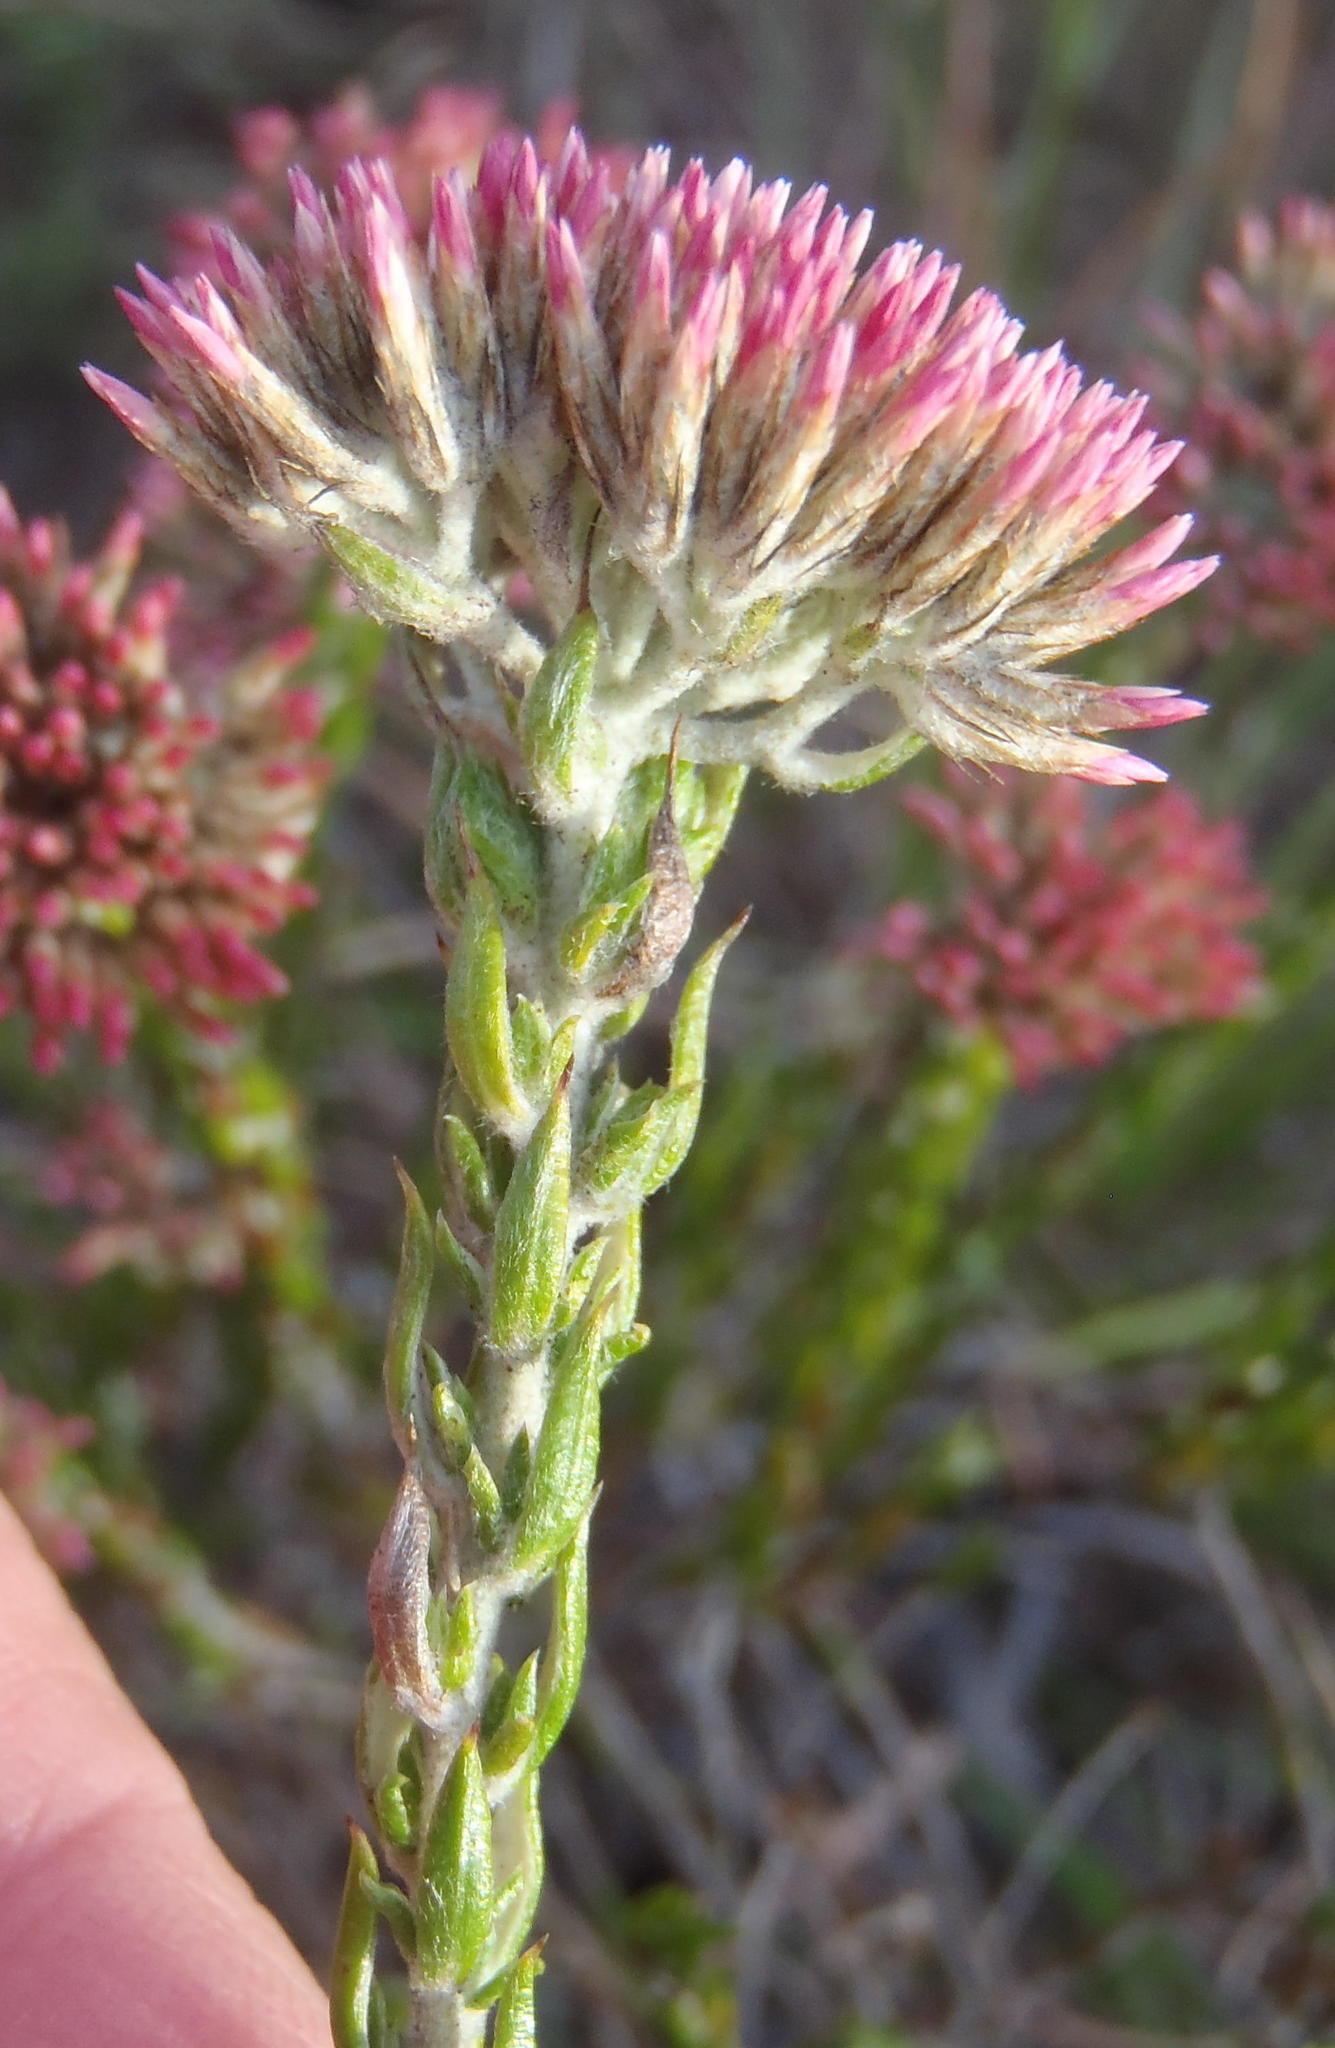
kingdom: Plantae
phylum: Tracheophyta
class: Magnoliopsida
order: Asterales
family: Asteraceae
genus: Metalasia
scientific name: Metalasia pungens
